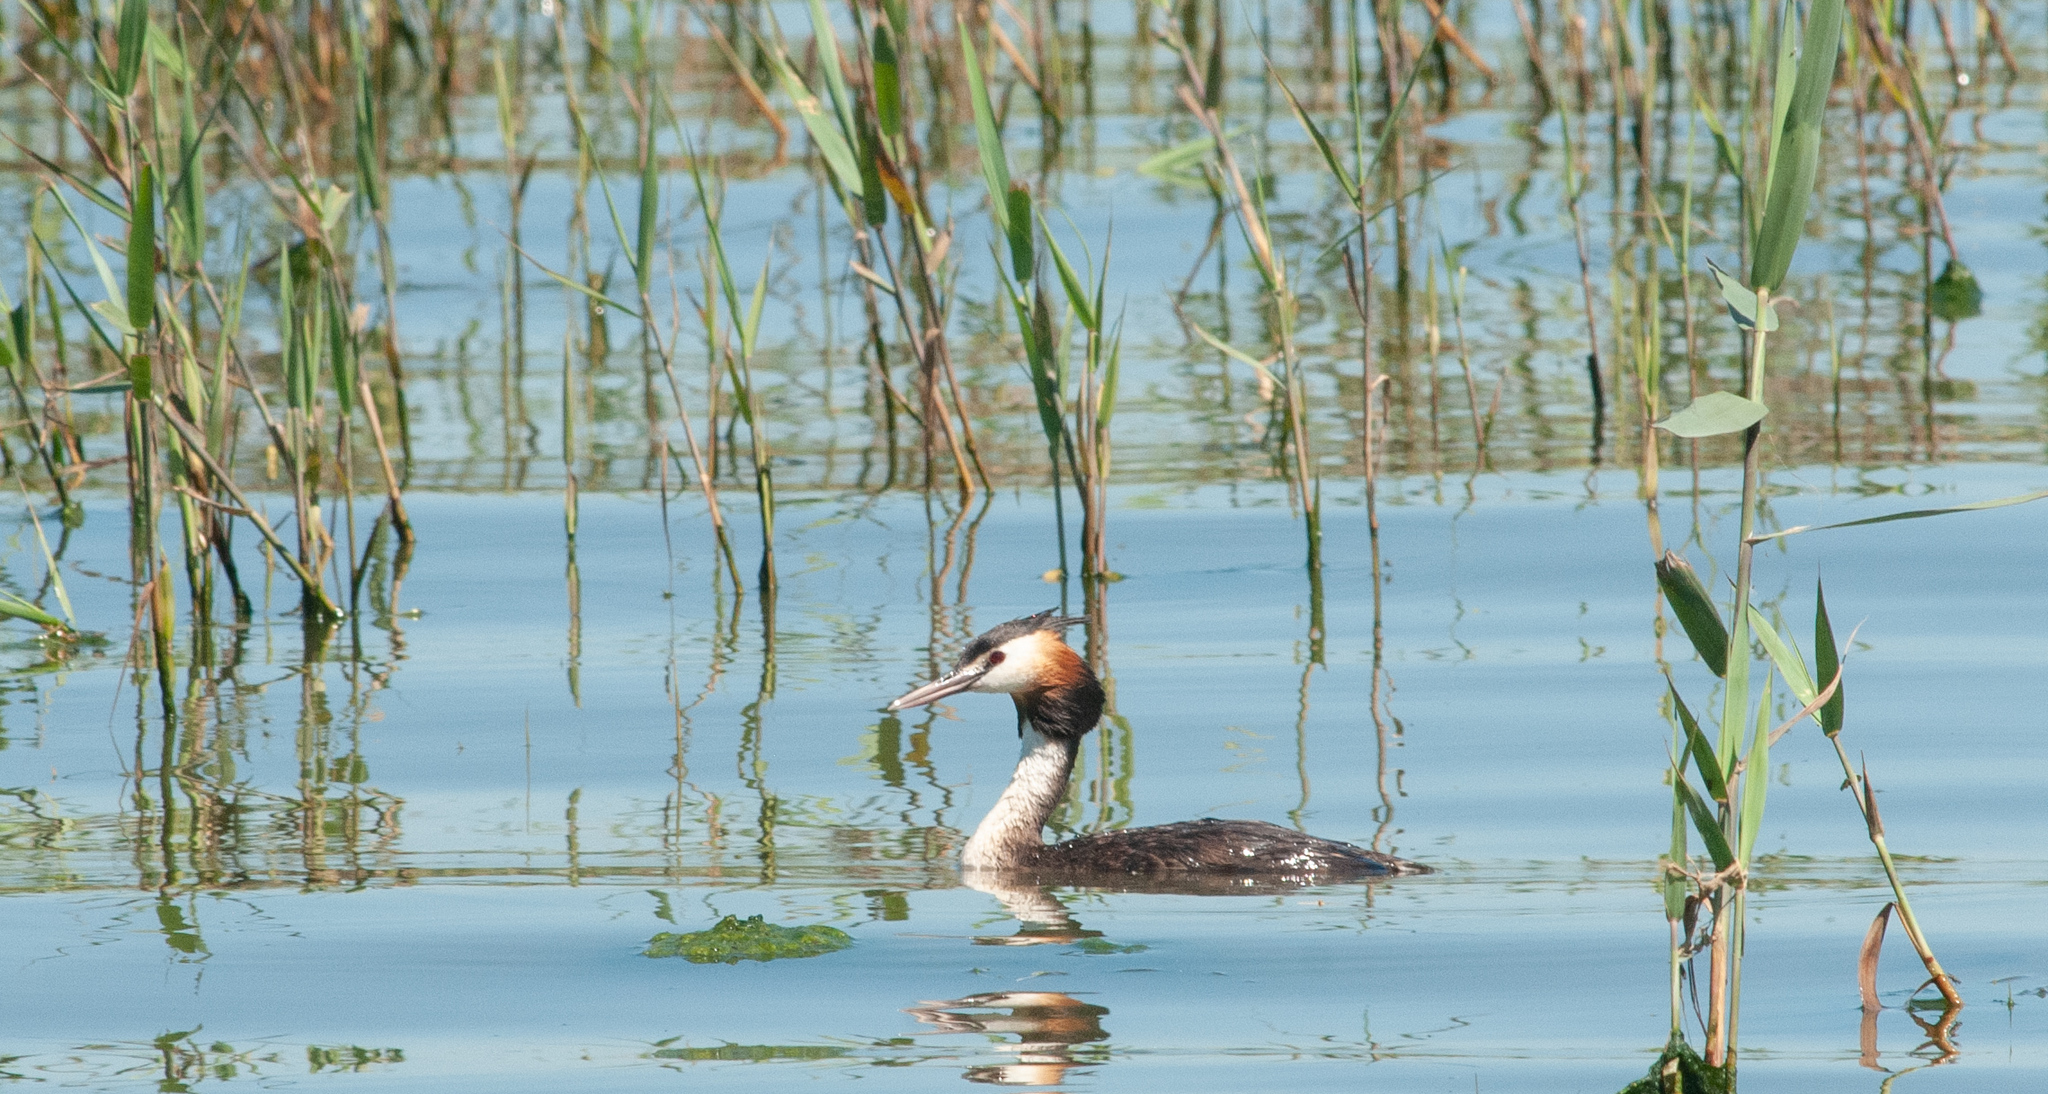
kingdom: Animalia
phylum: Chordata
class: Aves
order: Podicipediformes
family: Podicipedidae
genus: Podiceps
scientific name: Podiceps cristatus
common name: Great crested grebe
